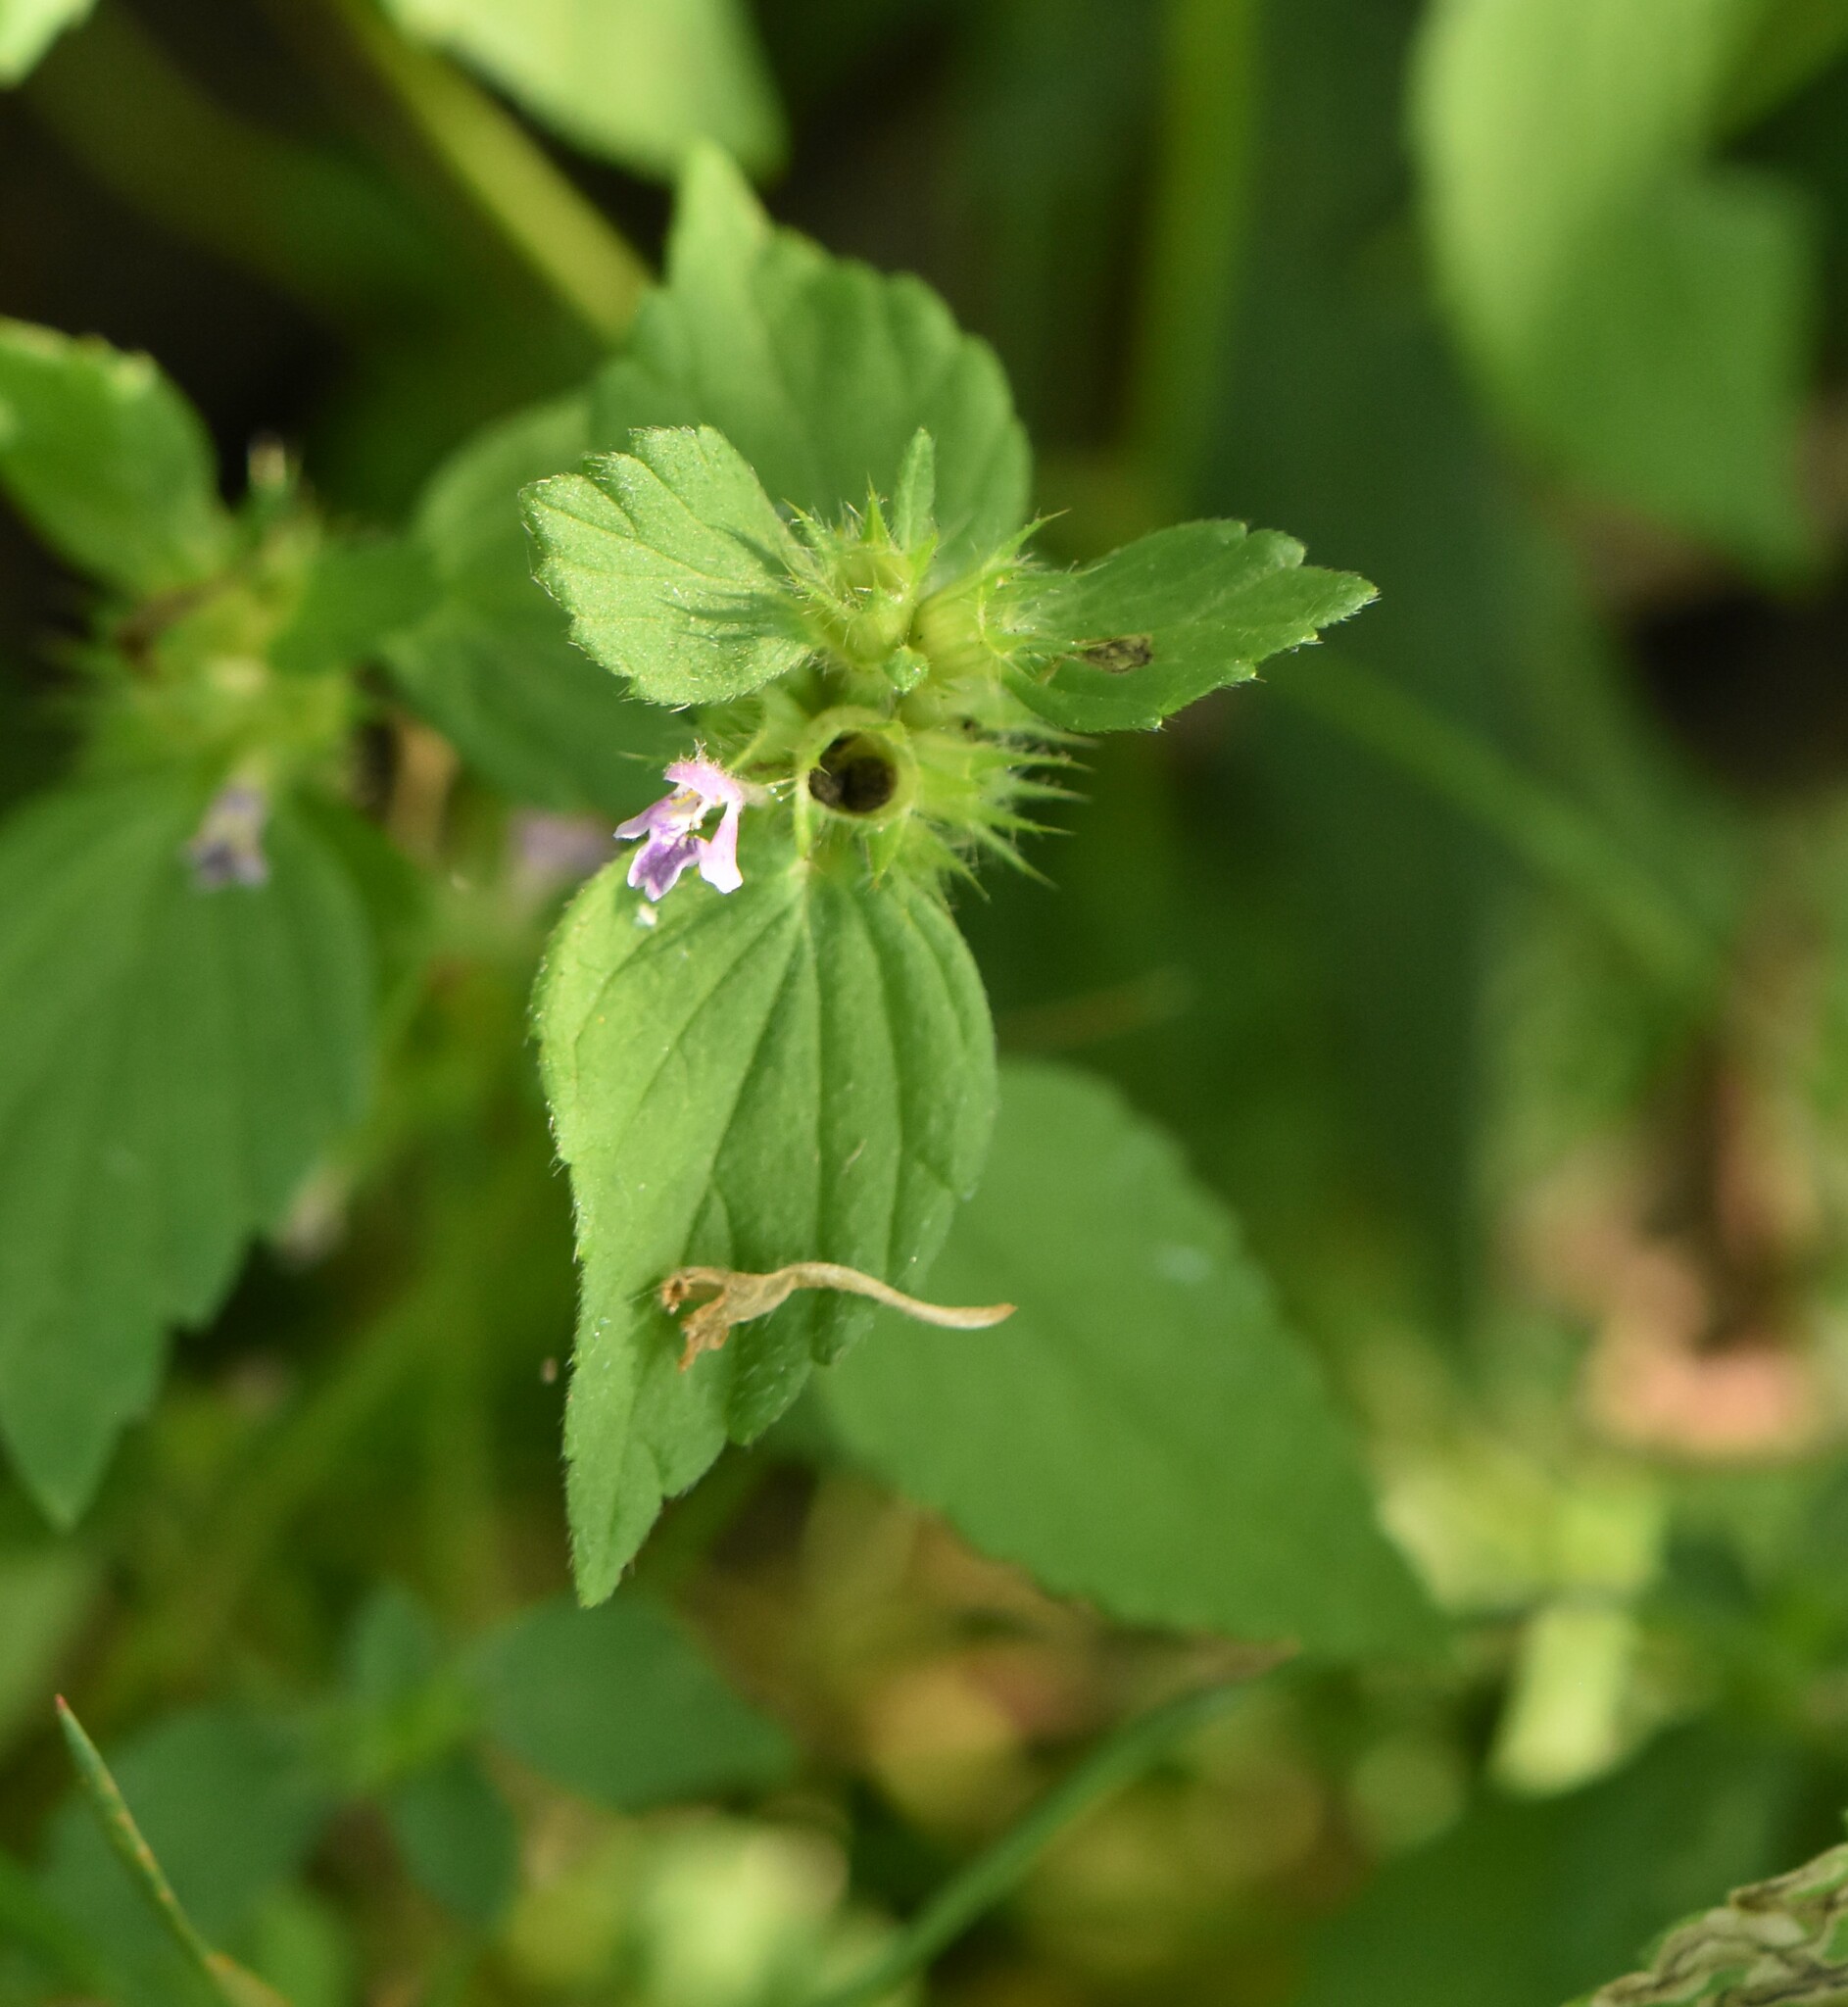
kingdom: Plantae
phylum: Tracheophyta
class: Magnoliopsida
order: Lamiales
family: Lamiaceae
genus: Galeopsis
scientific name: Galeopsis bifida
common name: Bifid hemp-nettle
